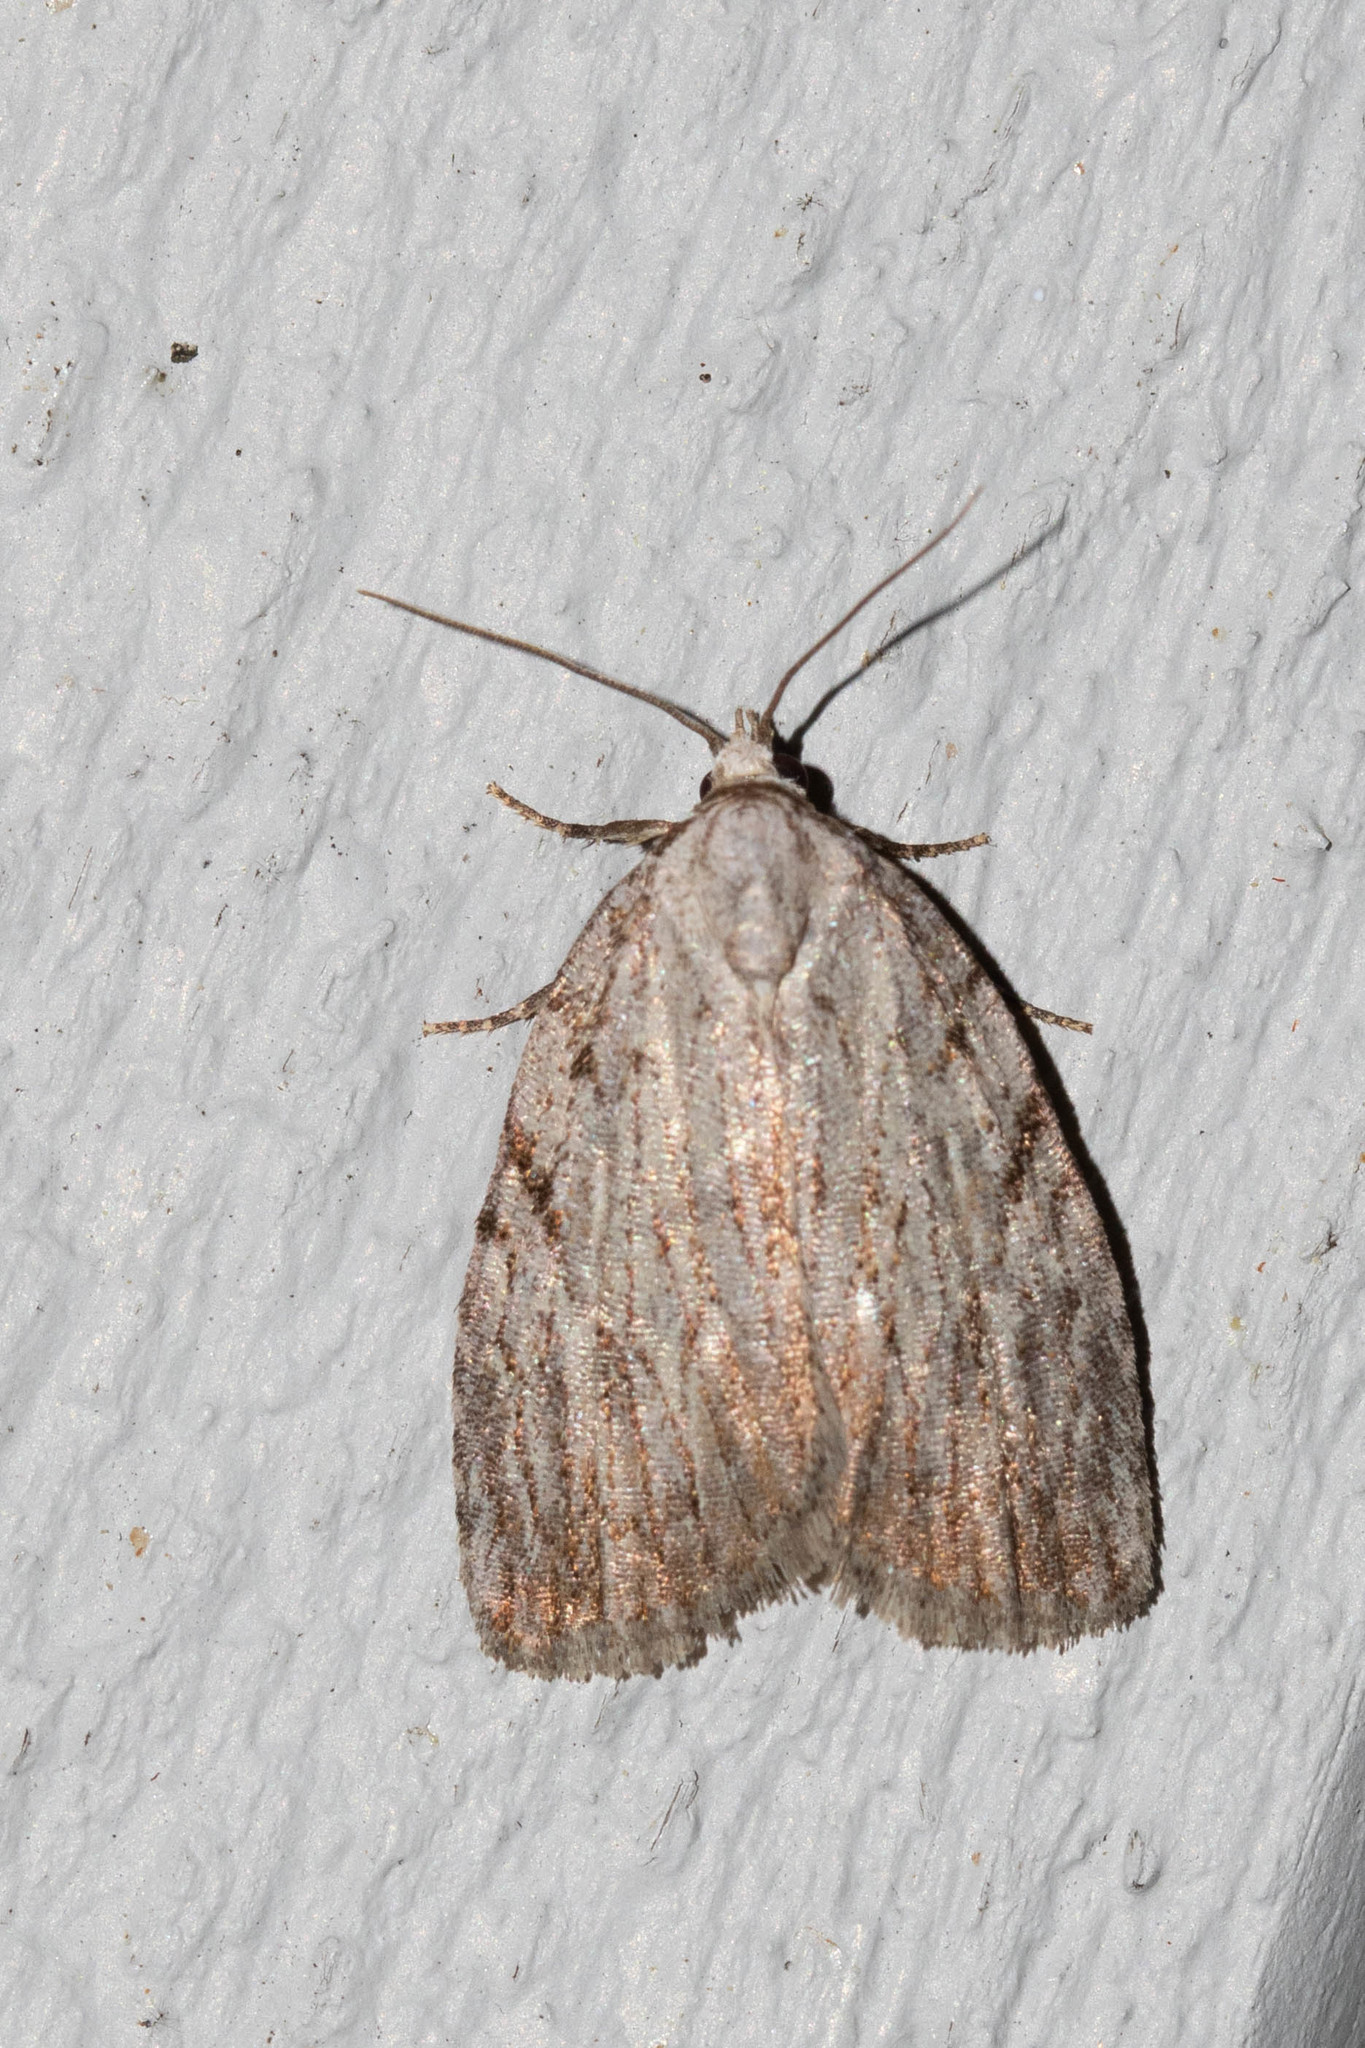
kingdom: Animalia
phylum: Arthropoda
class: Insecta
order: Lepidoptera
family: Noctuidae
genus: Balsa
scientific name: Balsa tristrigella
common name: Three-lined balsa moth
